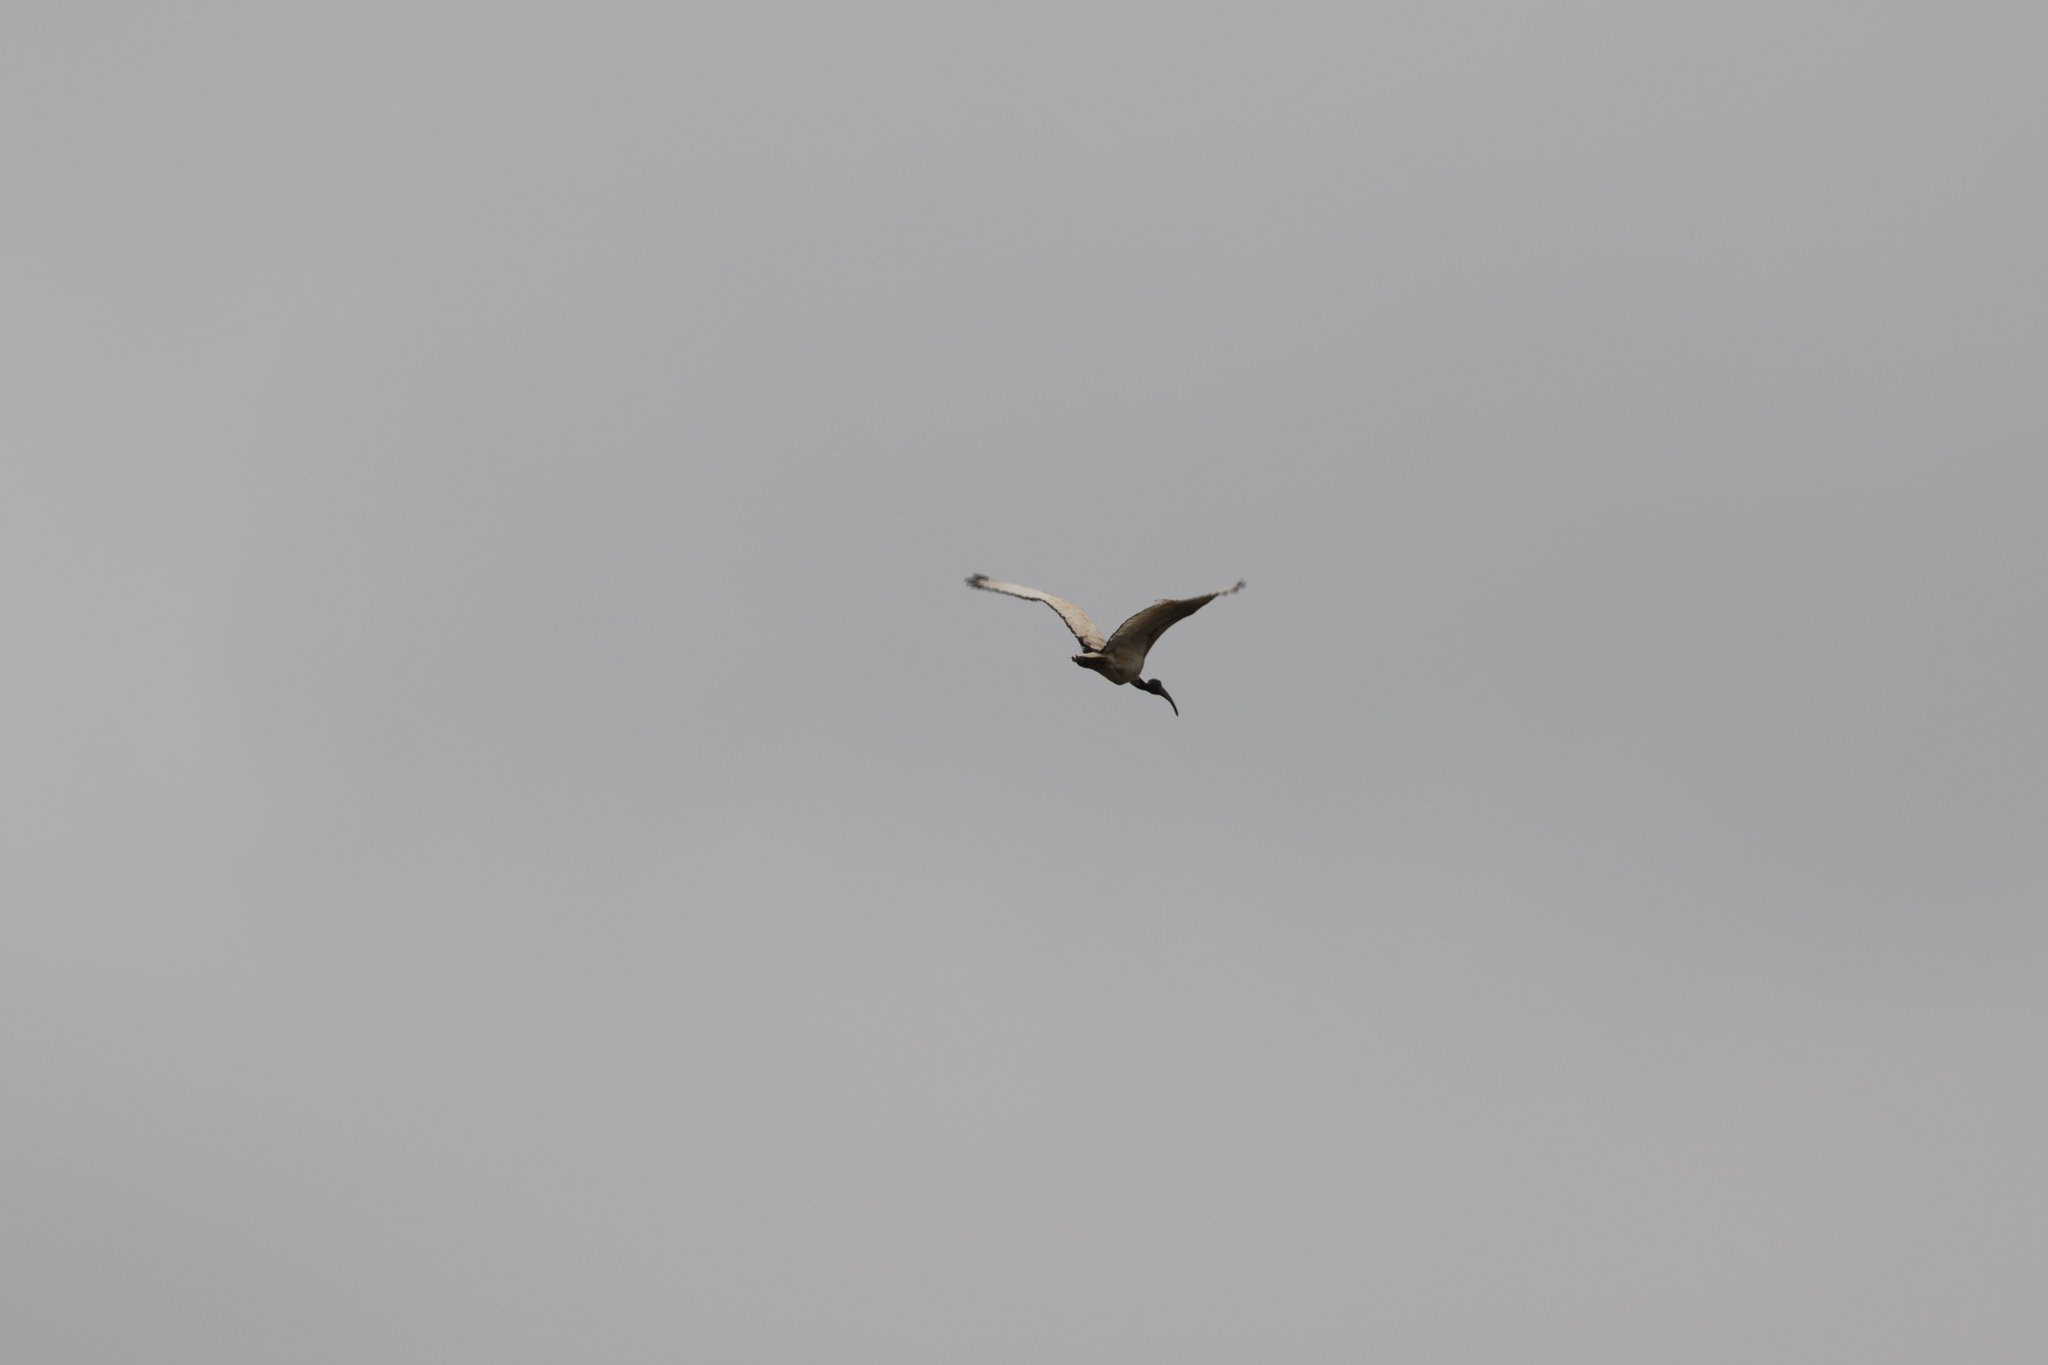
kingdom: Animalia
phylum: Chordata
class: Aves
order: Pelecaniformes
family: Threskiornithidae
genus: Threskiornis
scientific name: Threskiornis aethiopicus
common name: Sacred ibis
